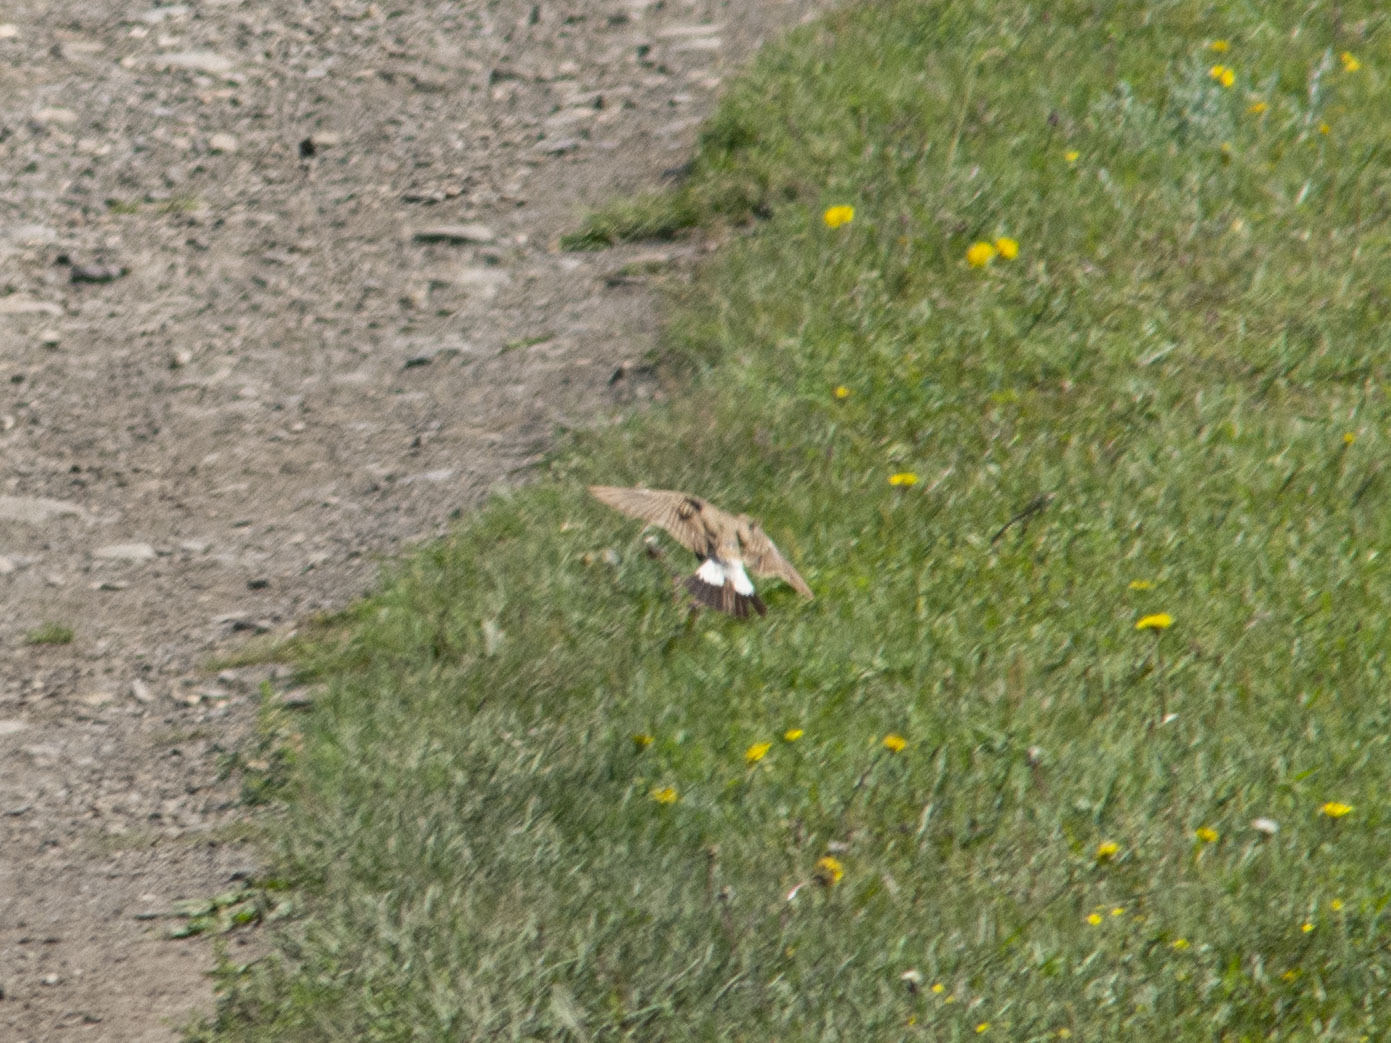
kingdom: Animalia
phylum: Chordata
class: Aves
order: Passeriformes
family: Muscicapidae
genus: Oenanthe
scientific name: Oenanthe isabellina
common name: Isabelline wheatear
